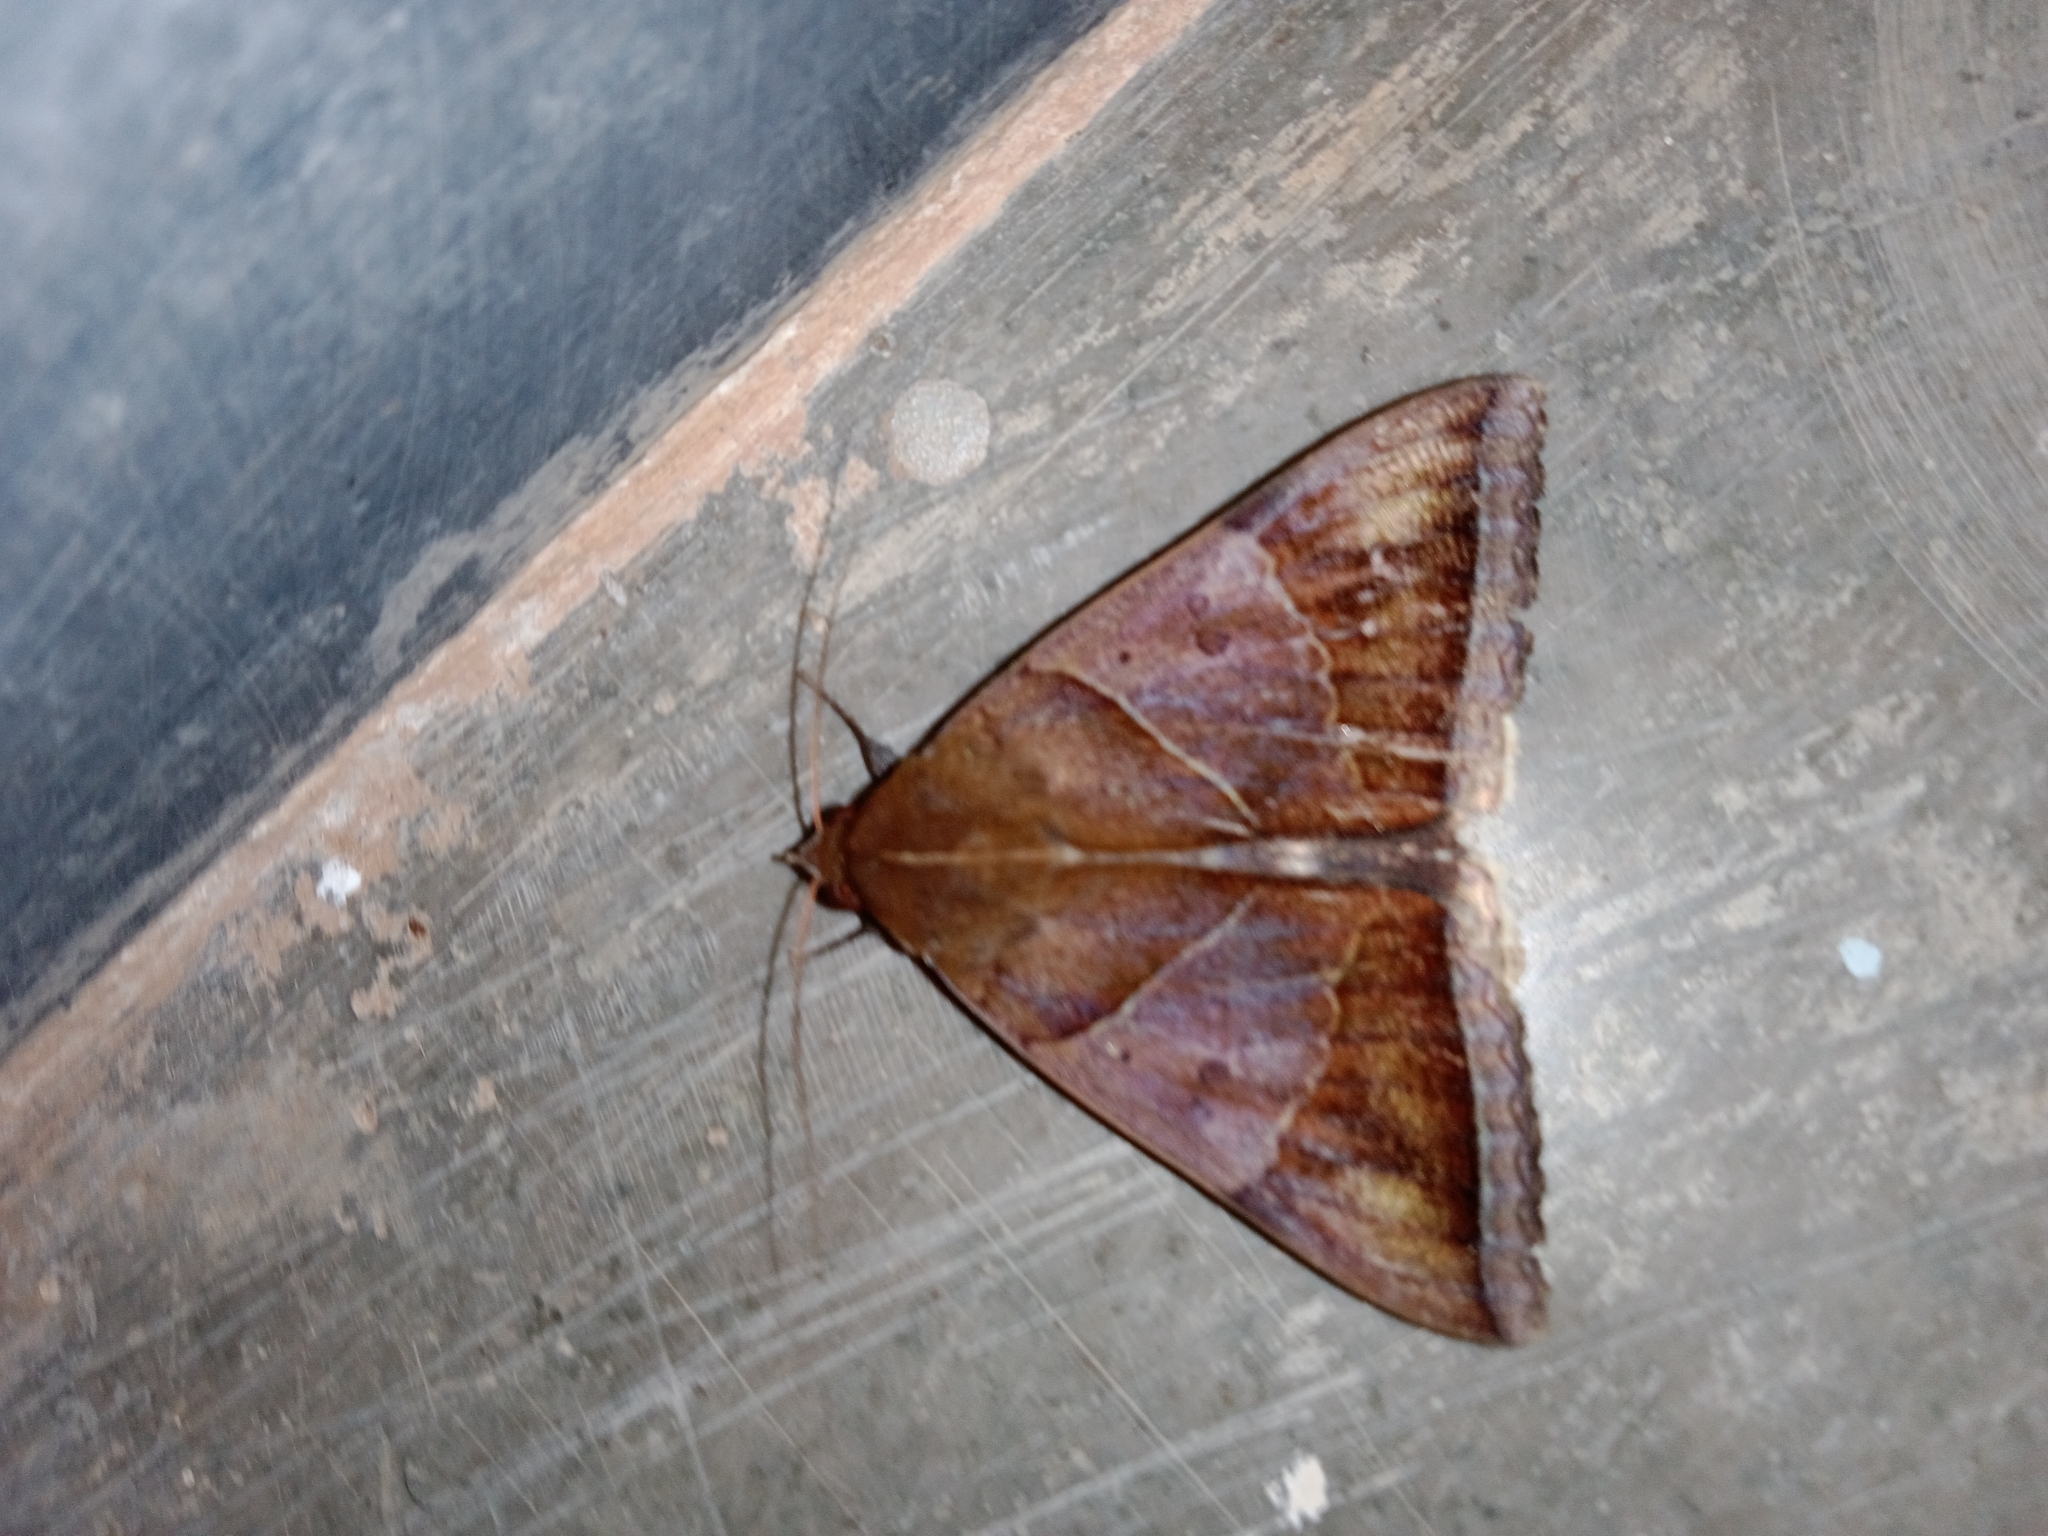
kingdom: Animalia
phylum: Arthropoda
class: Insecta
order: Lepidoptera
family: Erebidae
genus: Artena
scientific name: Artena dotata
